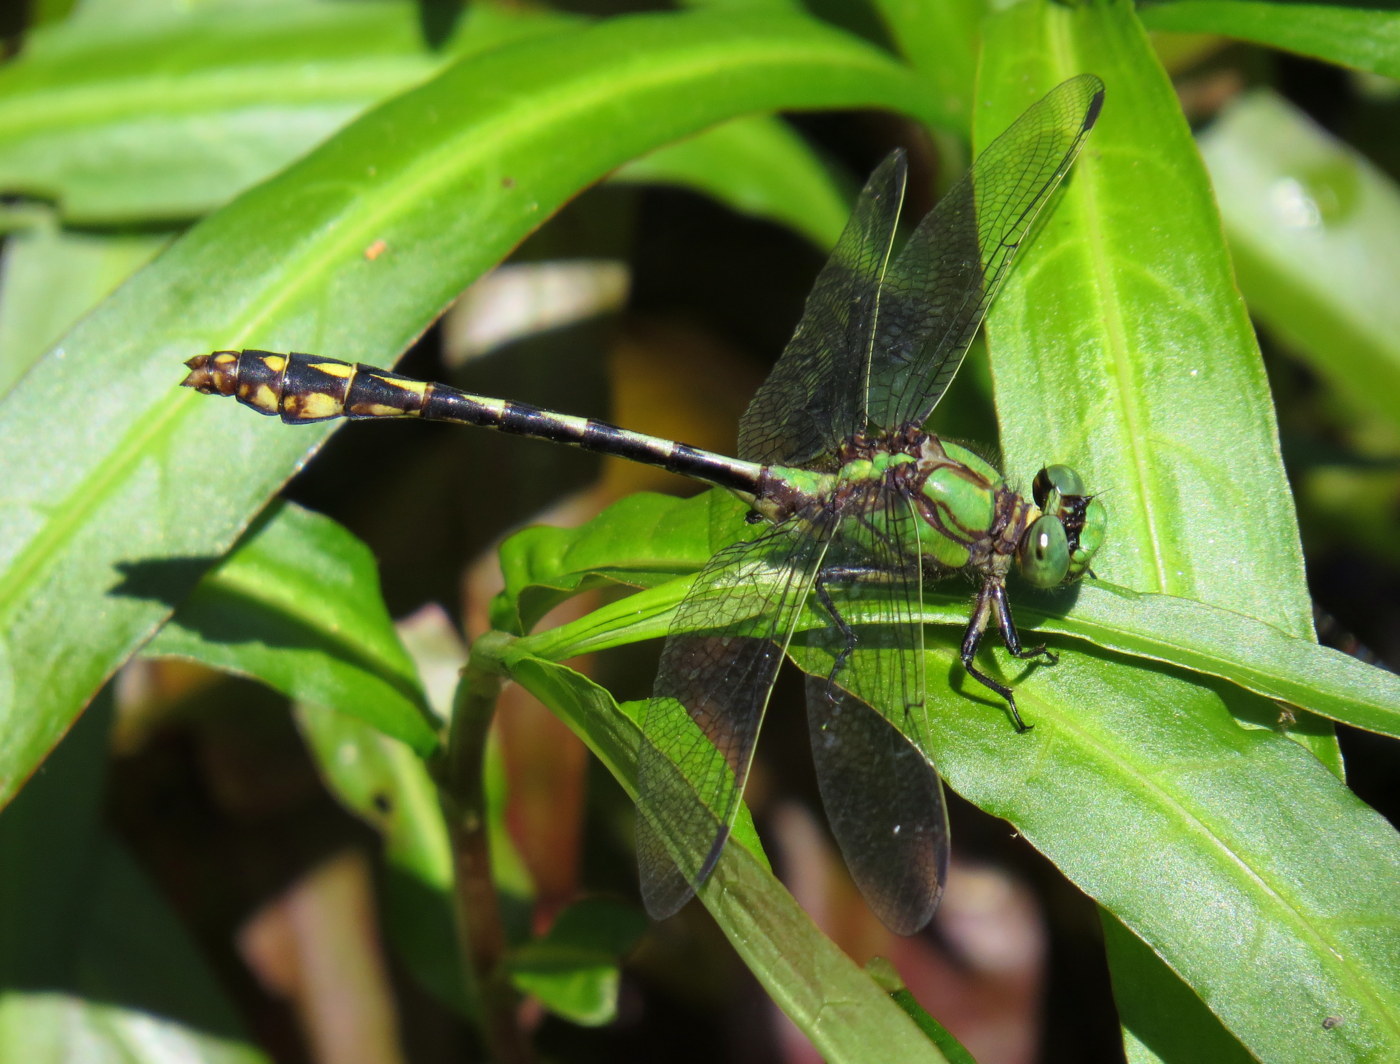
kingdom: Animalia
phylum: Arthropoda
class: Insecta
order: Odonata
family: Gomphidae
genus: Ophiogomphus
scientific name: Ophiogomphus aspersus
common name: Brook snaketail
